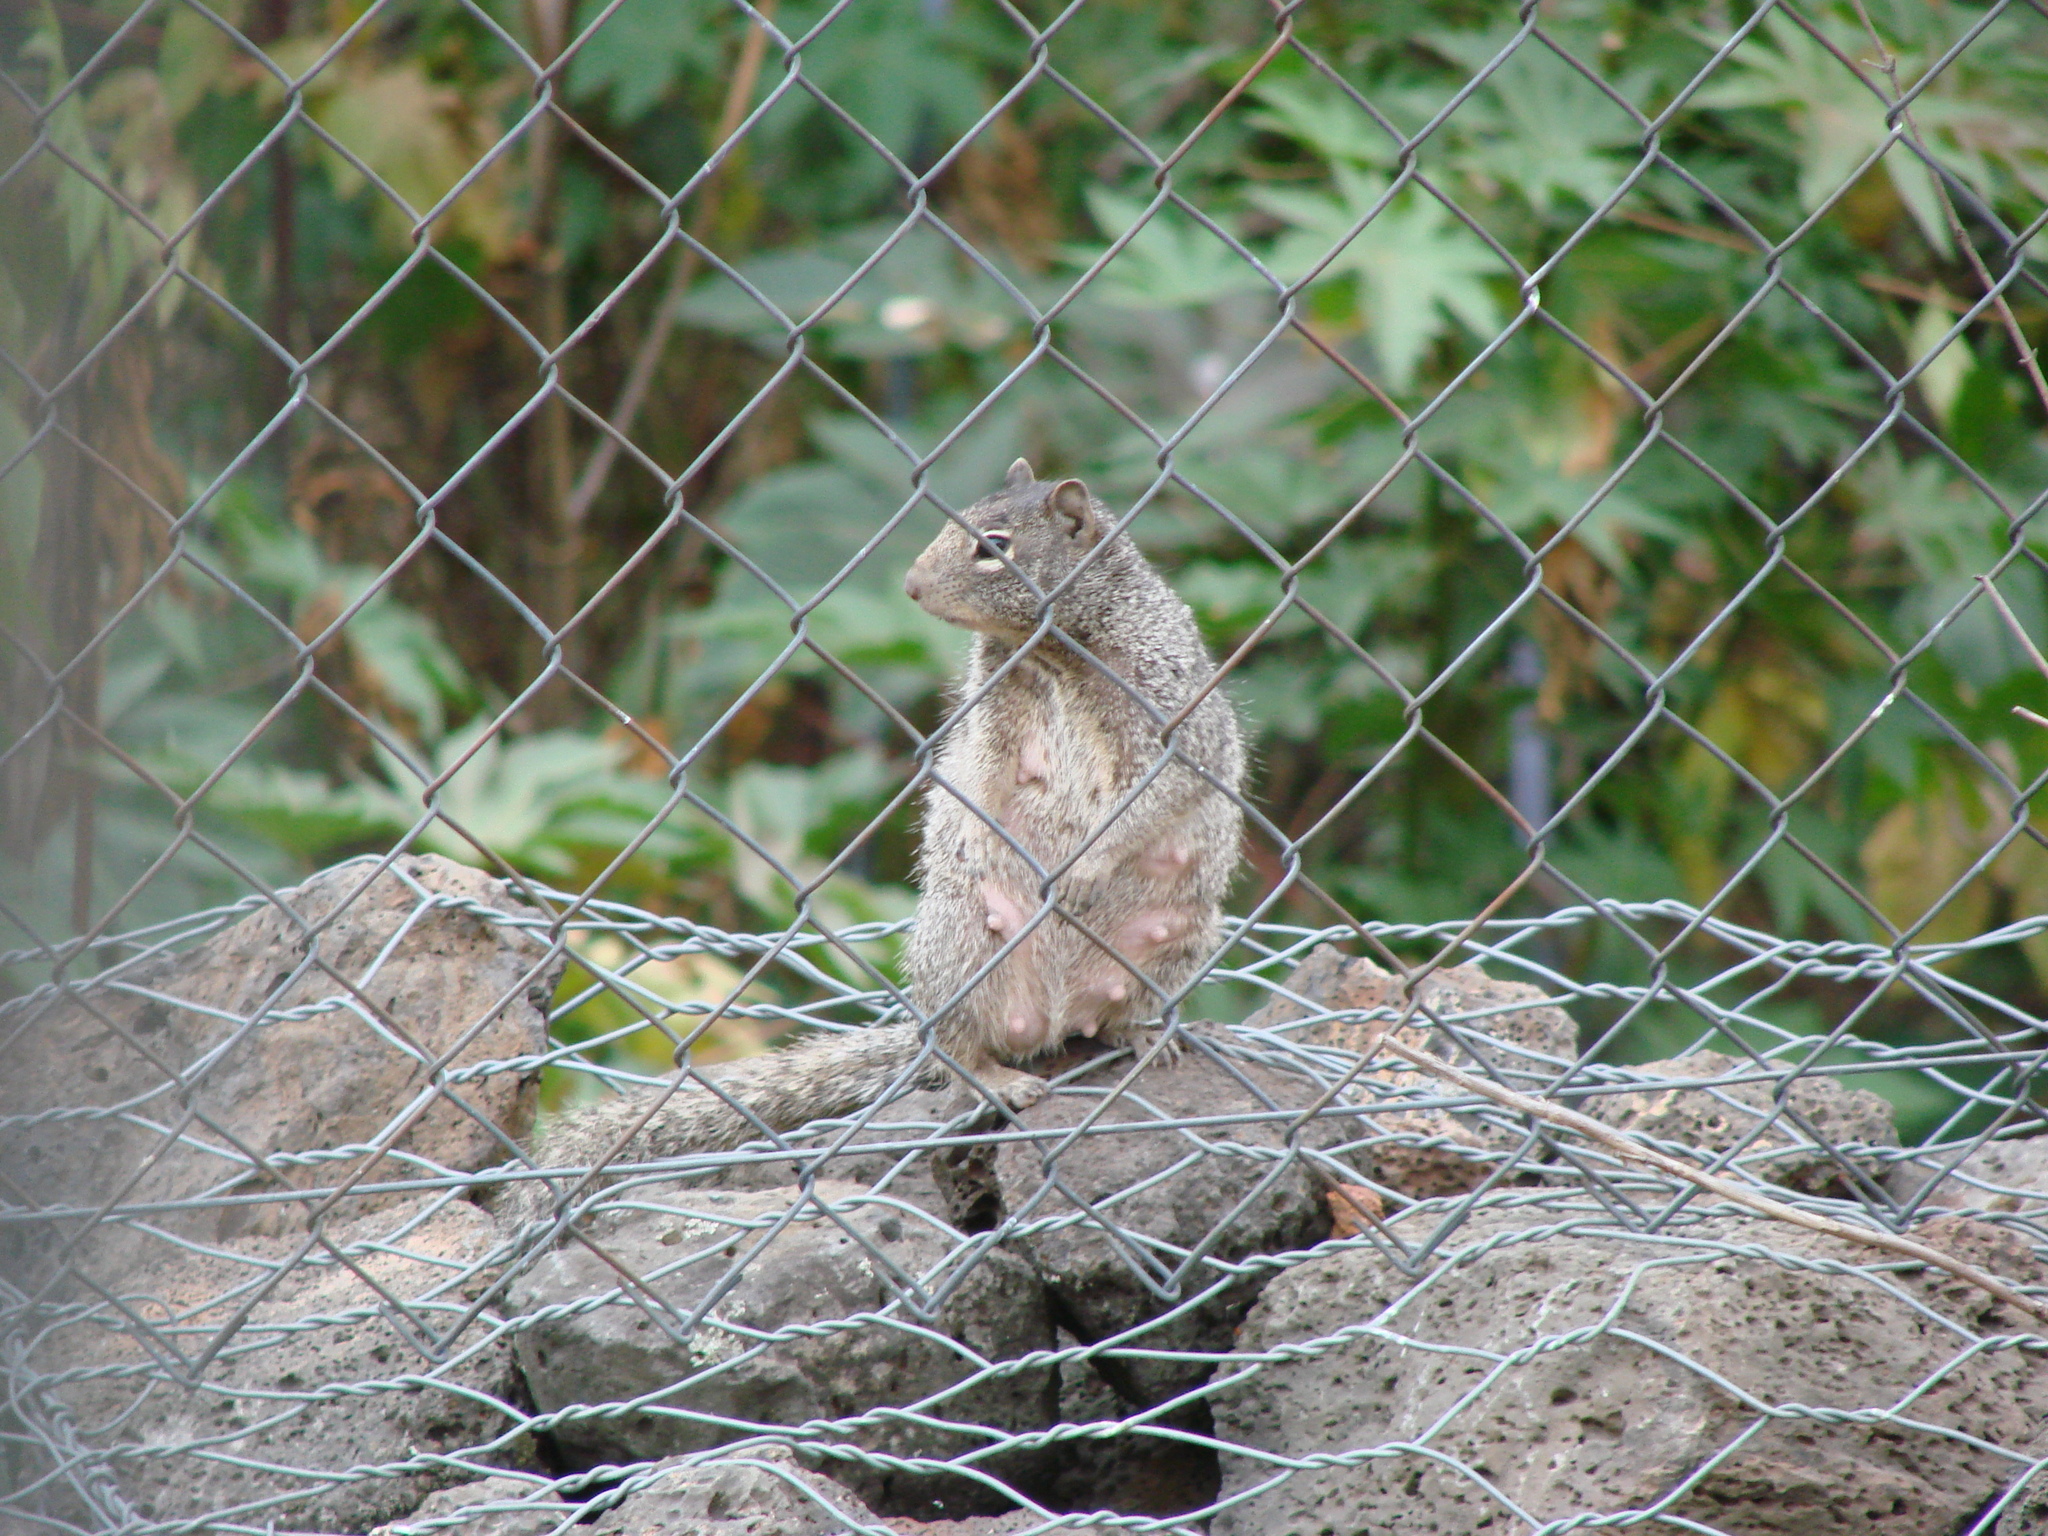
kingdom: Animalia
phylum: Chordata
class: Mammalia
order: Rodentia
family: Sciuridae
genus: Otospermophilus
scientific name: Otospermophilus variegatus
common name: Rock squirrel
